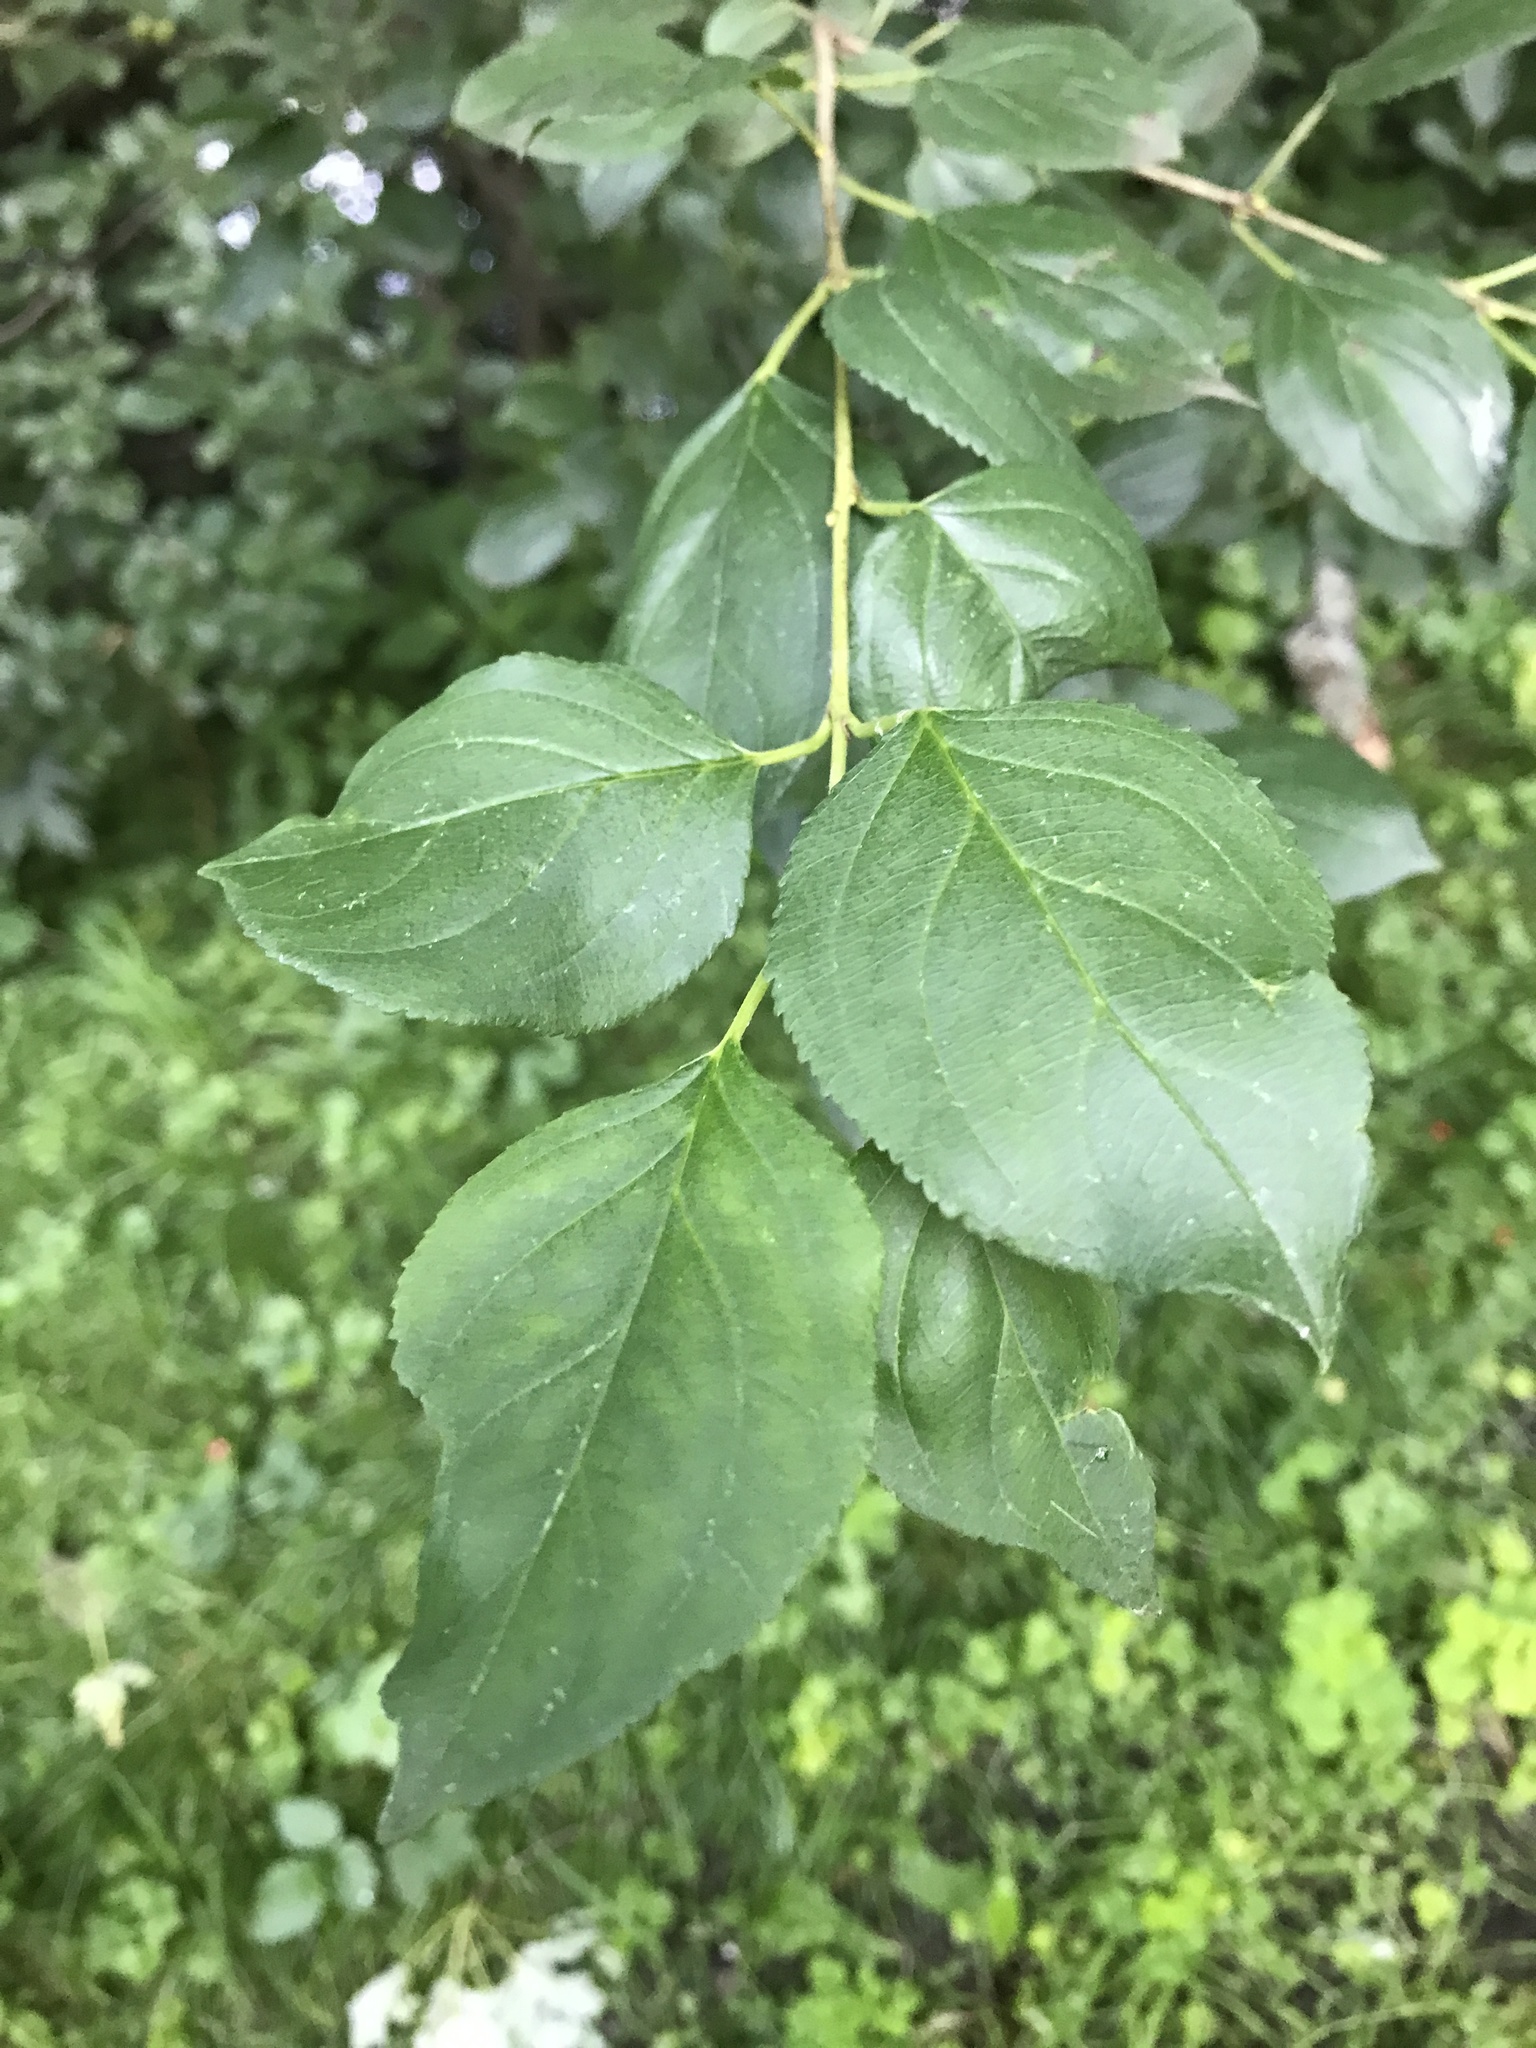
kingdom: Plantae
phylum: Tracheophyta
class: Magnoliopsida
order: Rosales
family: Rhamnaceae
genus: Rhamnus
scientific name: Rhamnus cathartica
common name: Common buckthorn
